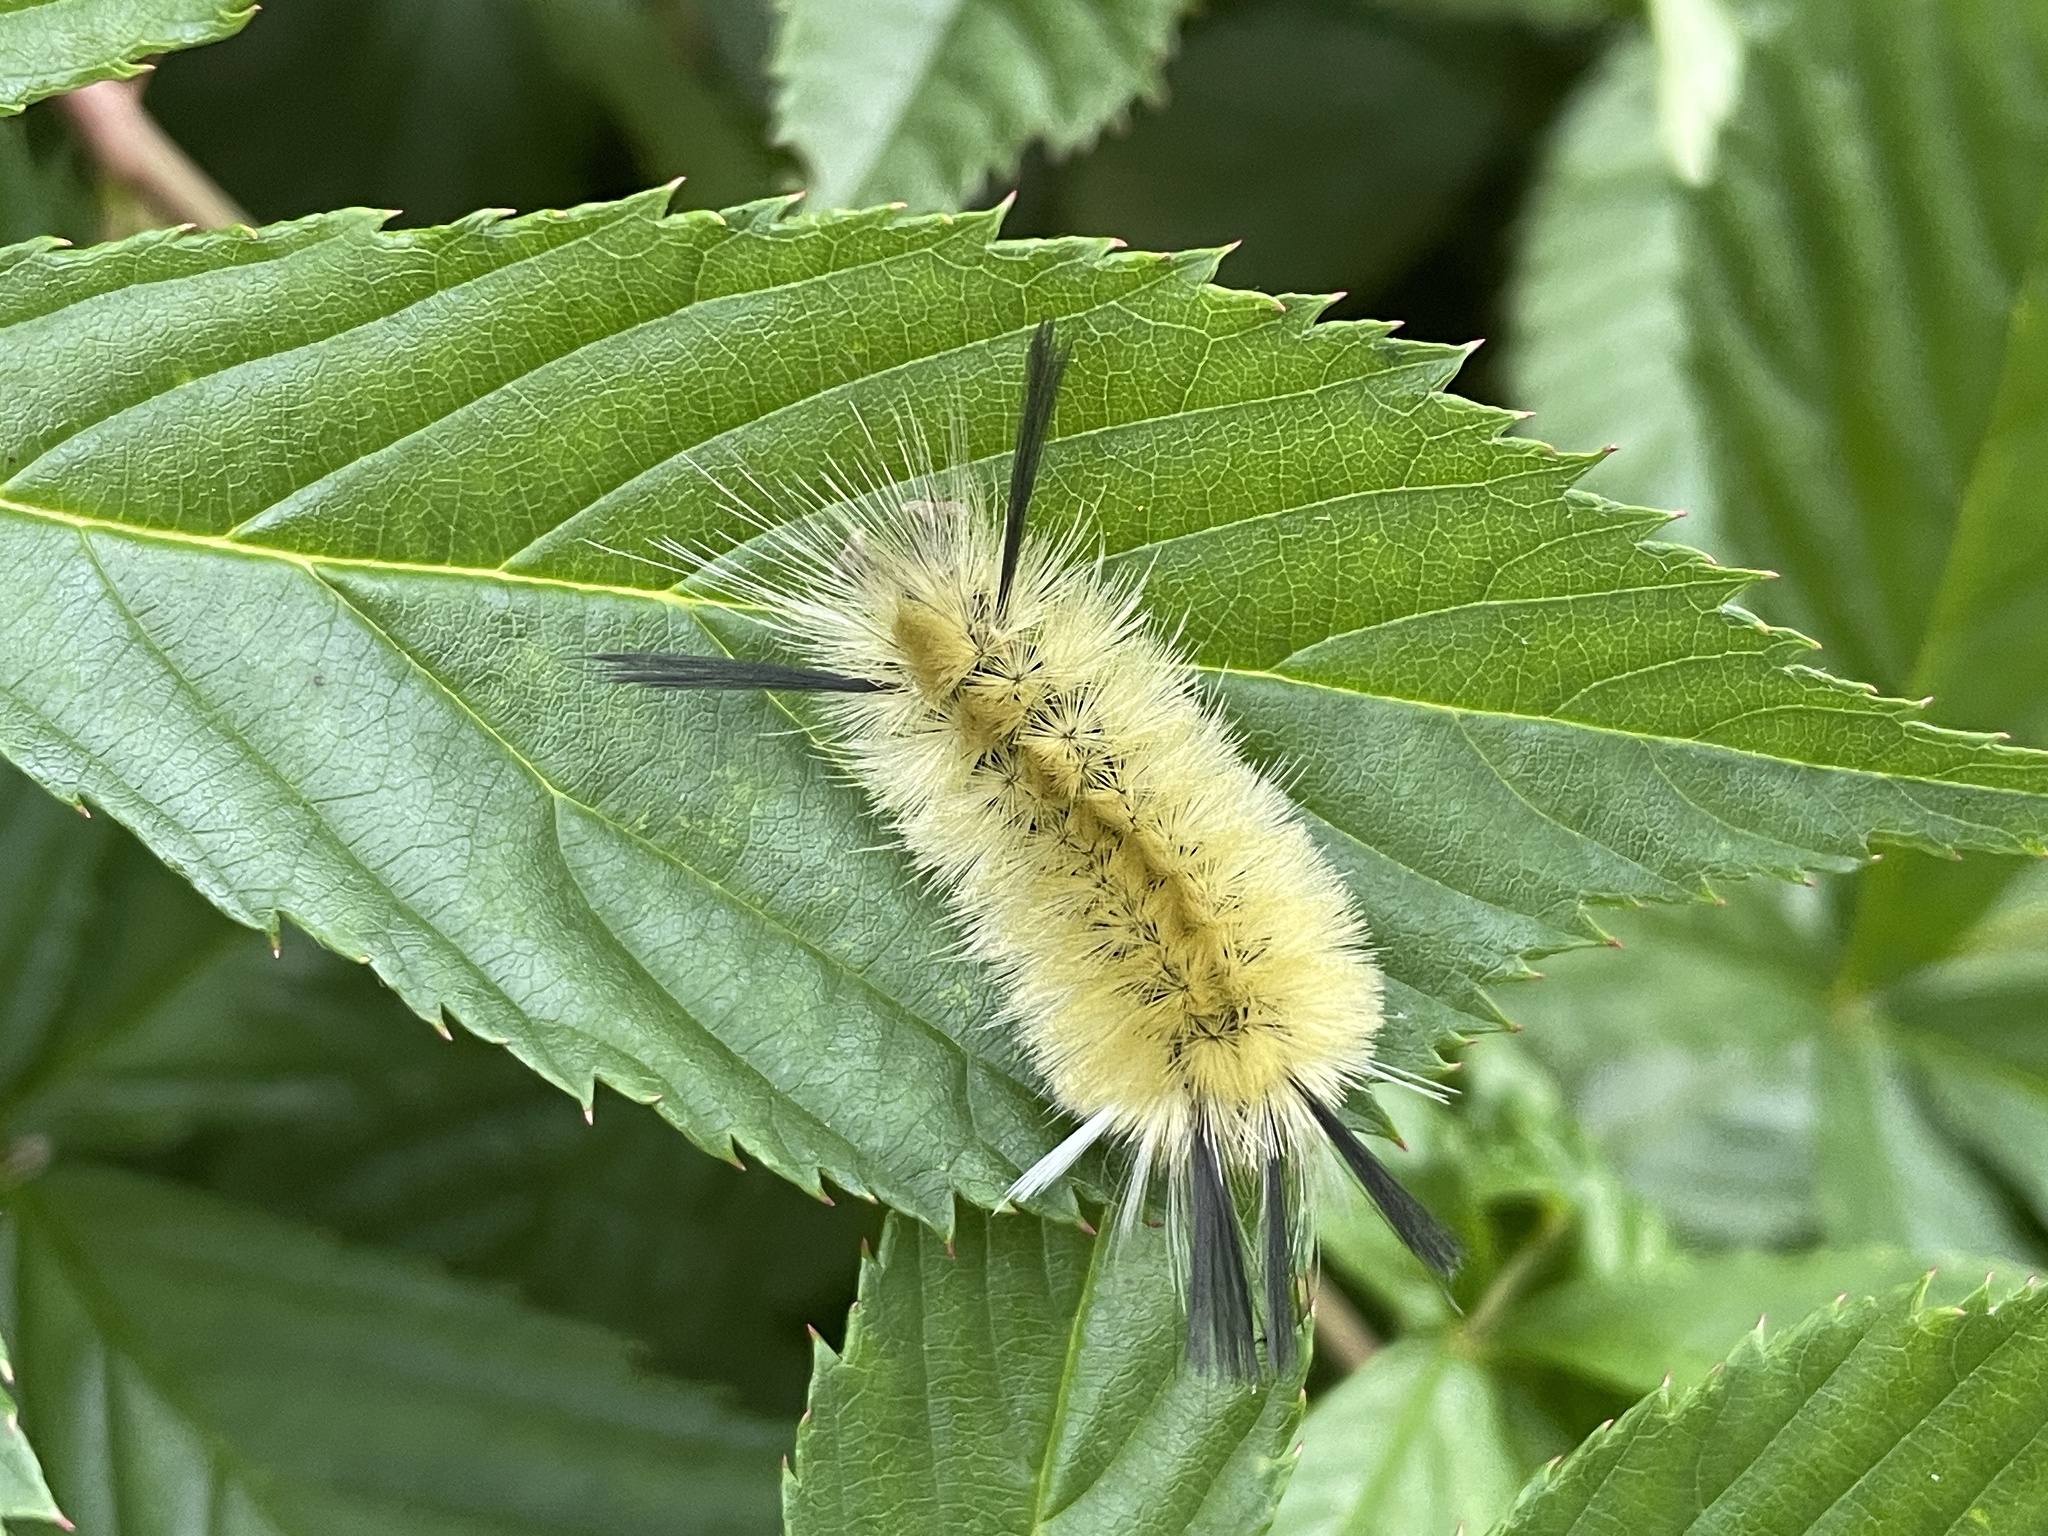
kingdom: Animalia
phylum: Arthropoda
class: Insecta
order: Lepidoptera
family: Erebidae
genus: Halysidota
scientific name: Halysidota tessellaris
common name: Banded tussock moth
